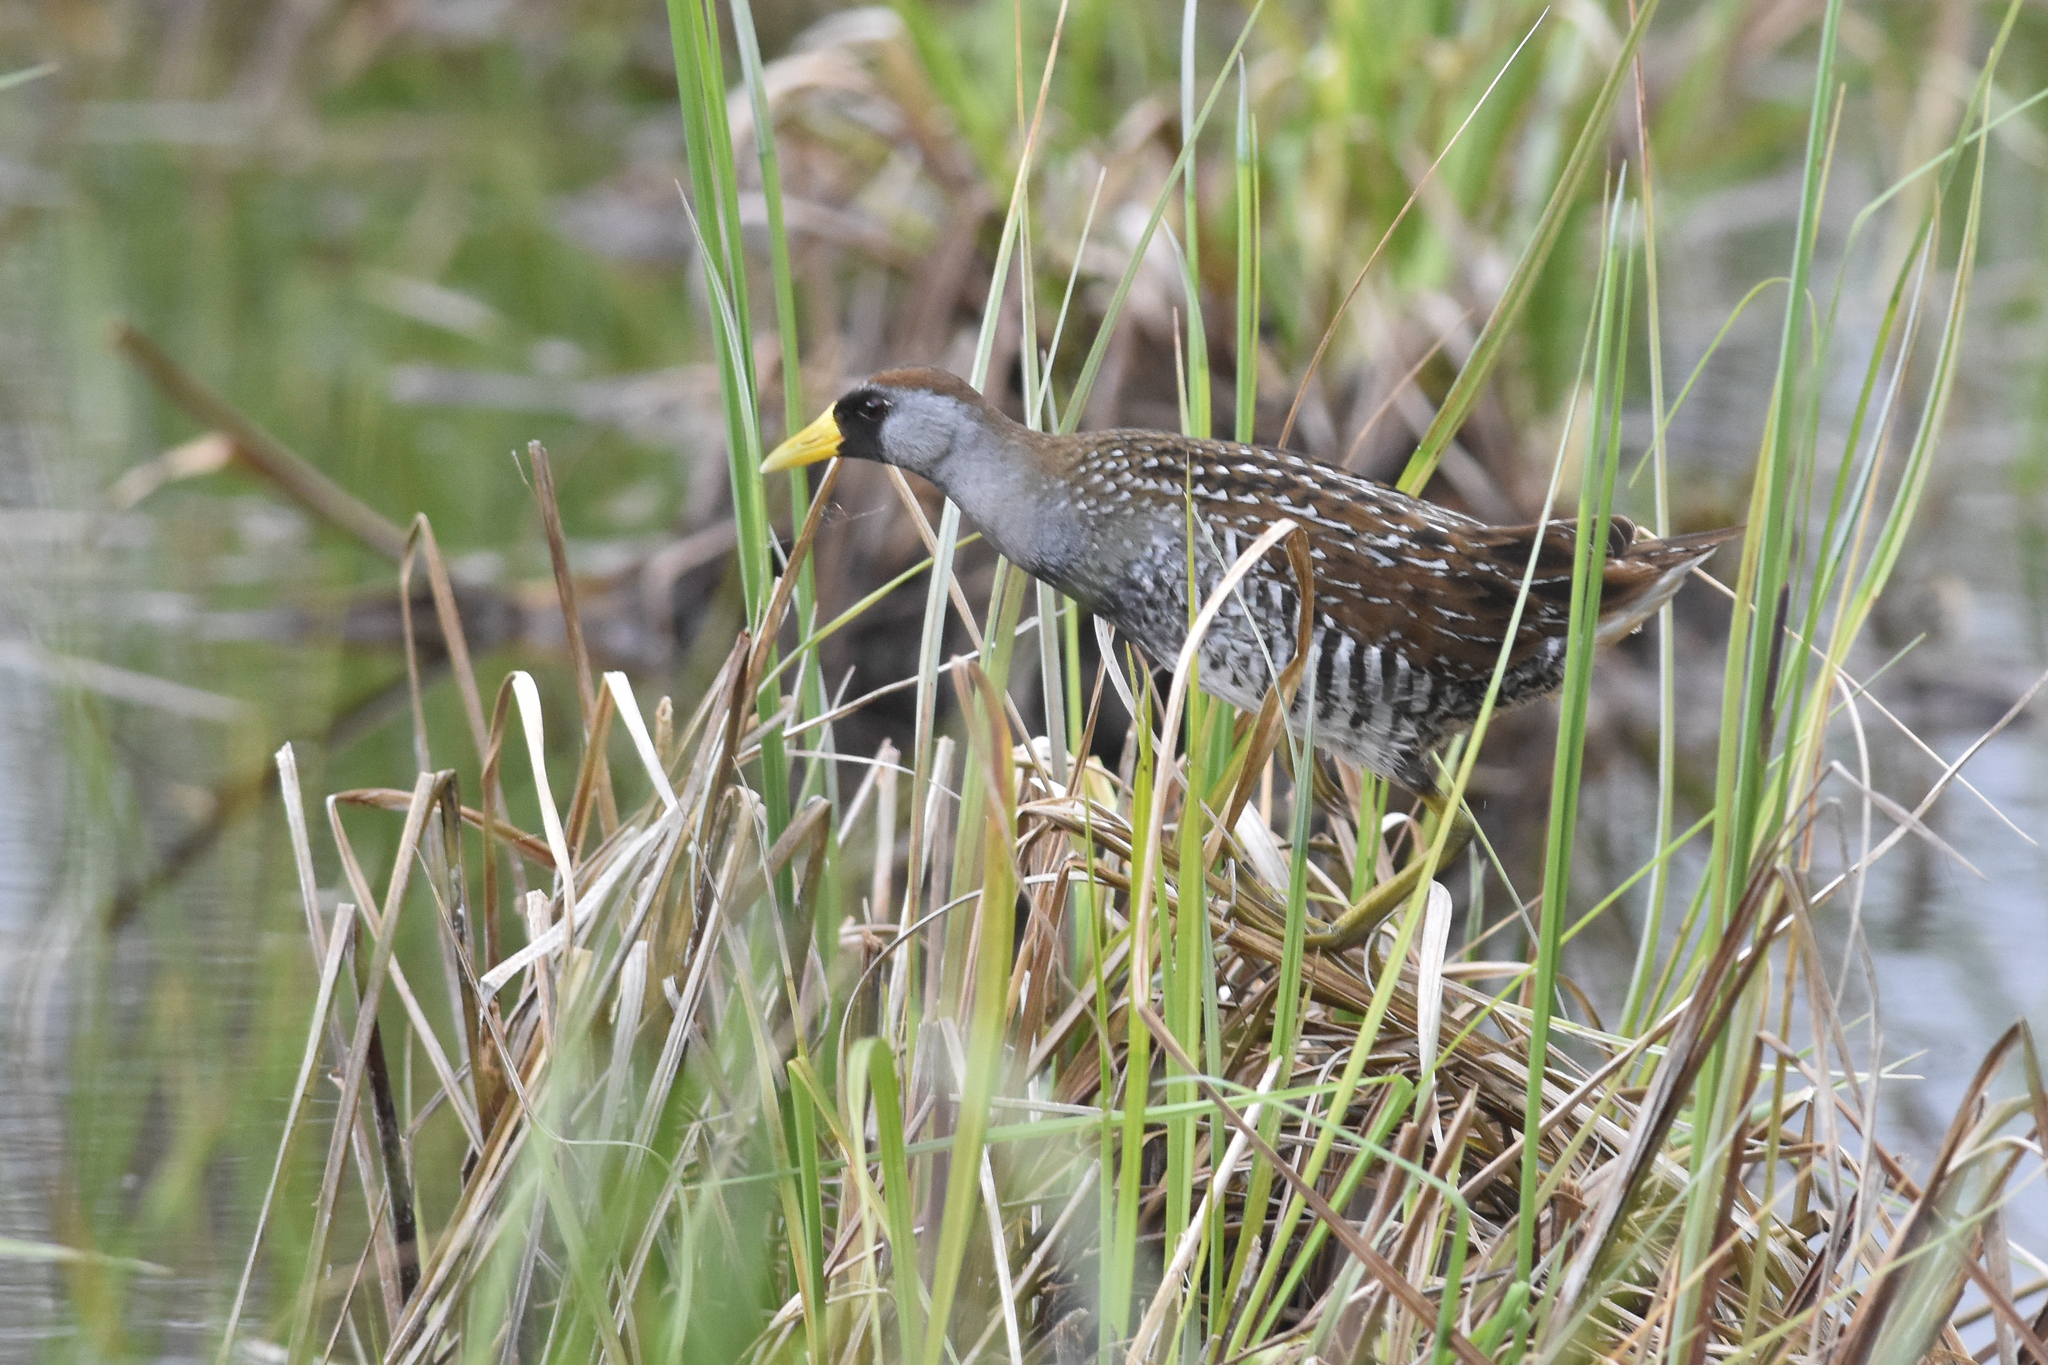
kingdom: Animalia
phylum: Chordata
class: Aves
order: Gruiformes
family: Rallidae
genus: Porzana
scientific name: Porzana carolina
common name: Sora
